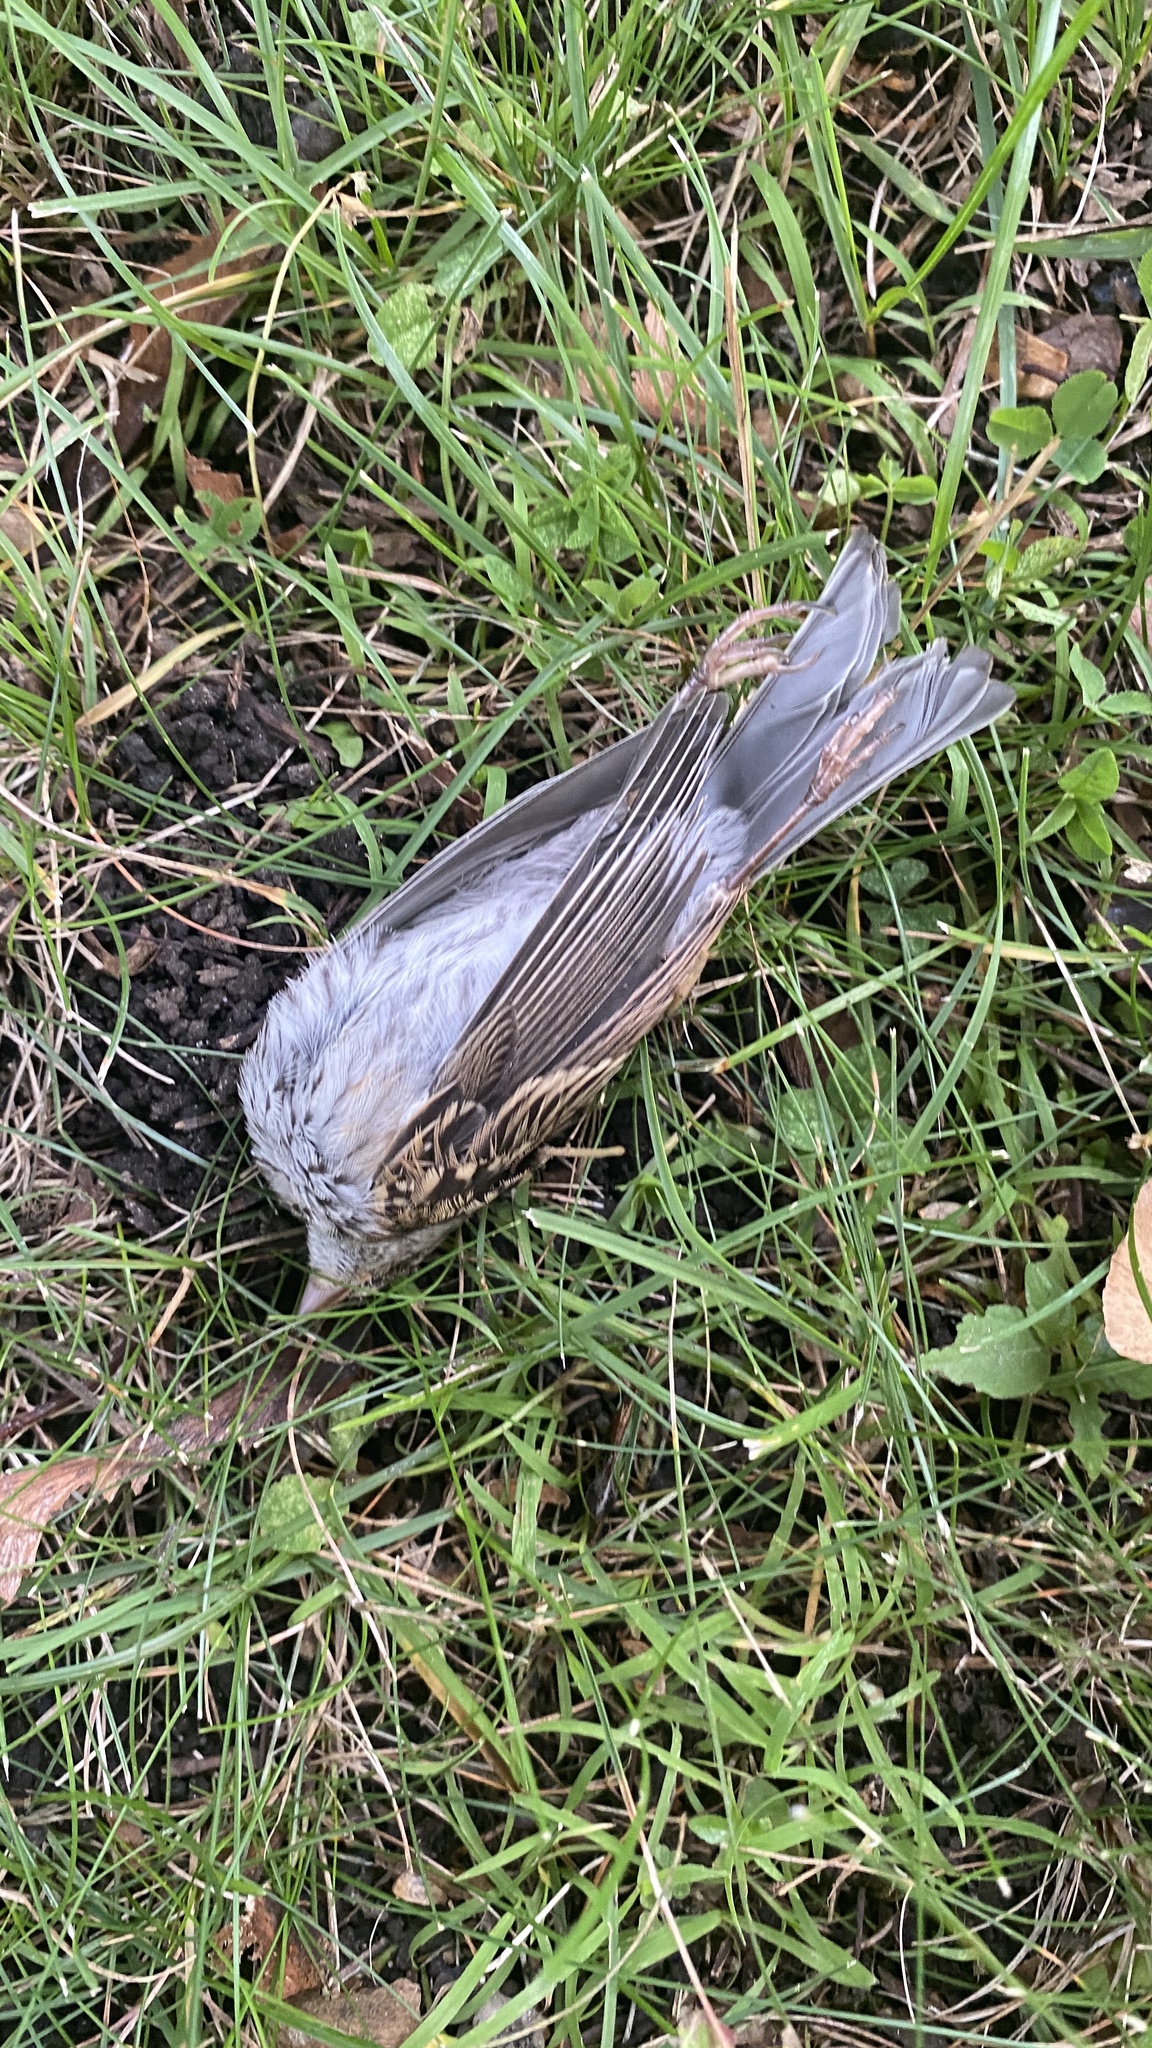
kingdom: Animalia
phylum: Chordata
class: Aves
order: Passeriformes
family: Passerellidae
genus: Spizella
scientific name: Spizella passerina
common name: Chipping sparrow
